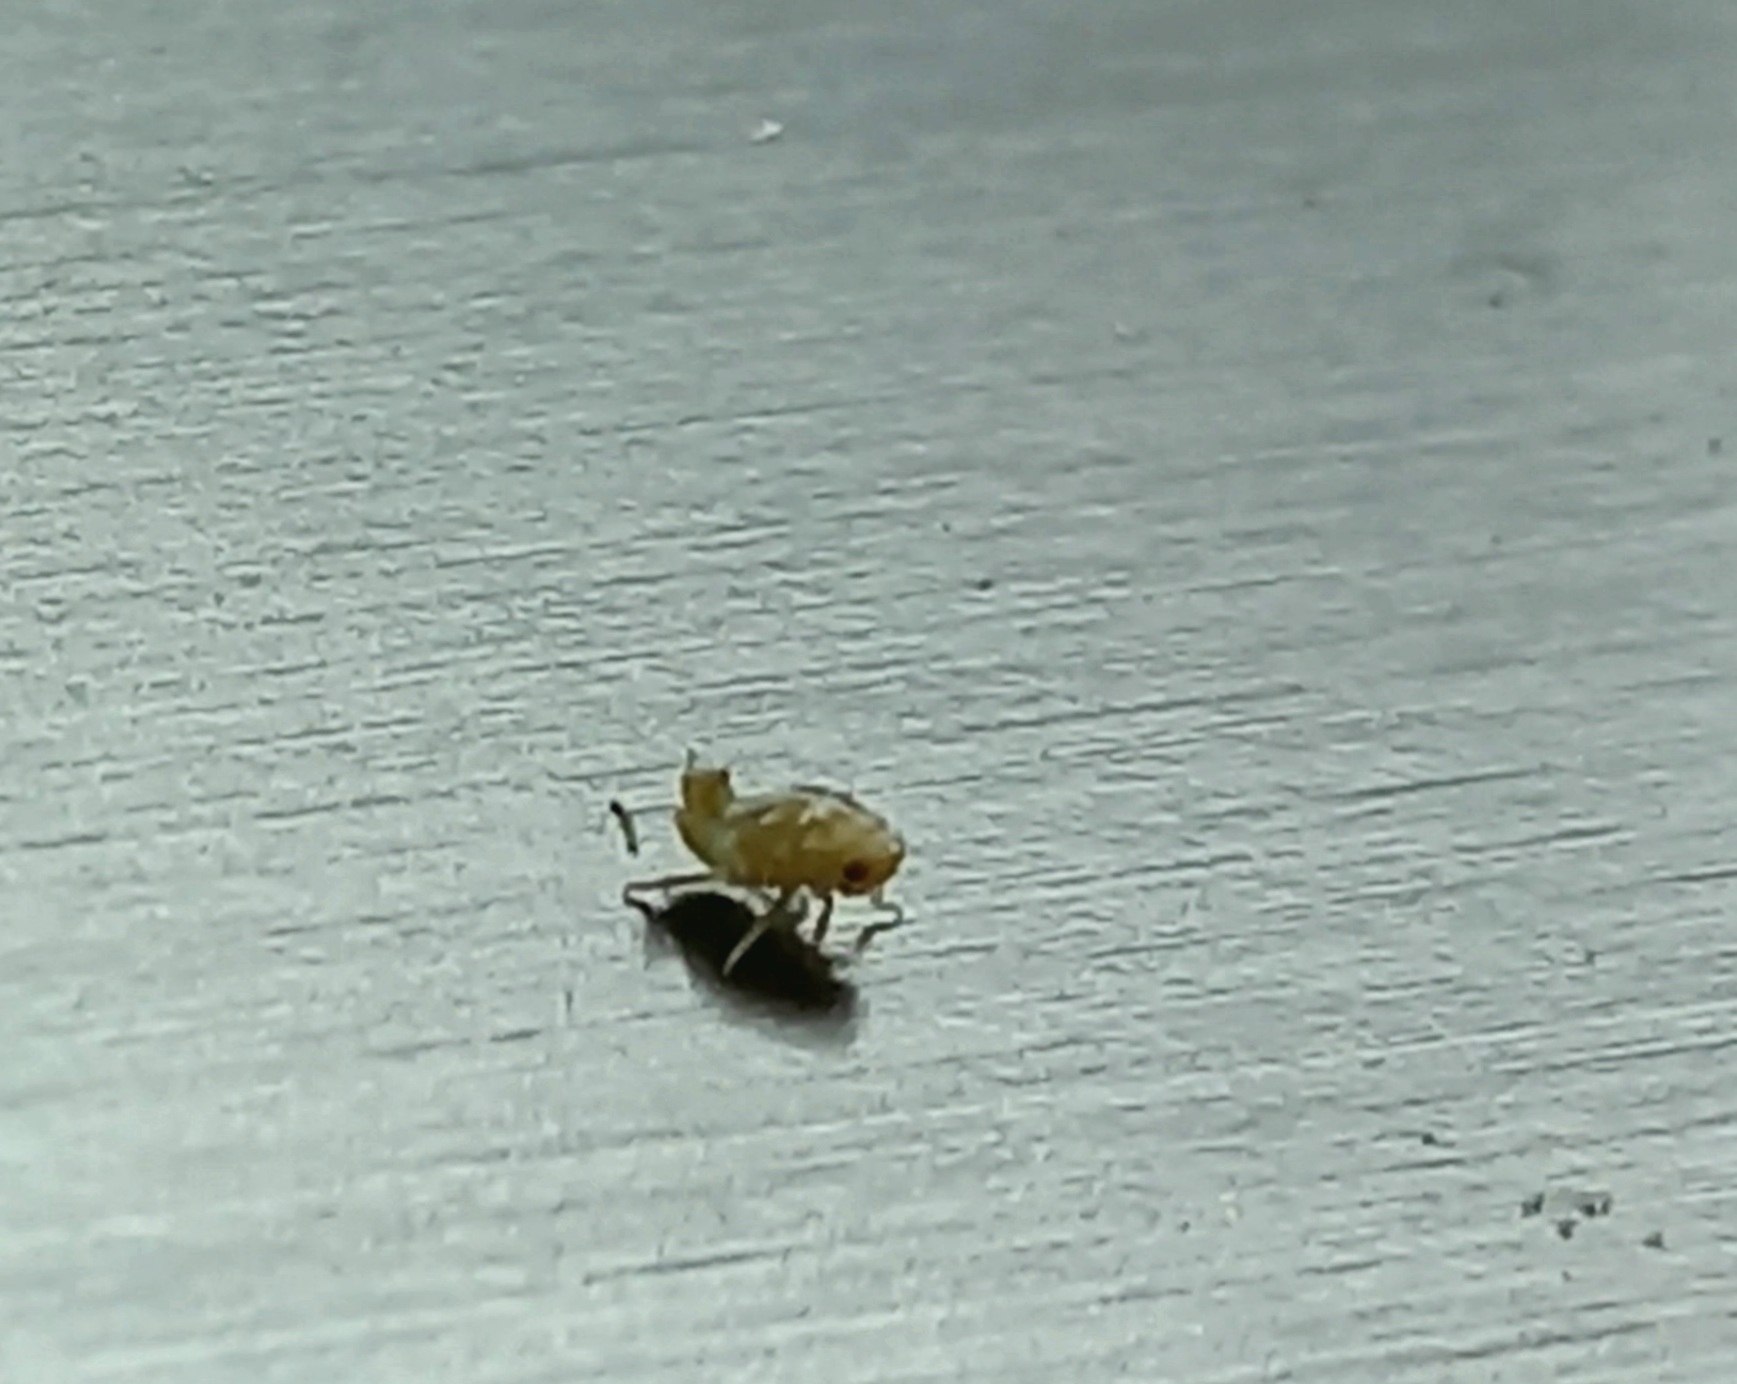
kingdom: Animalia
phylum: Arthropoda
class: Insecta
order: Hemiptera
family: Ricaniidae
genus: Scolypopa
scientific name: Scolypopa australis
